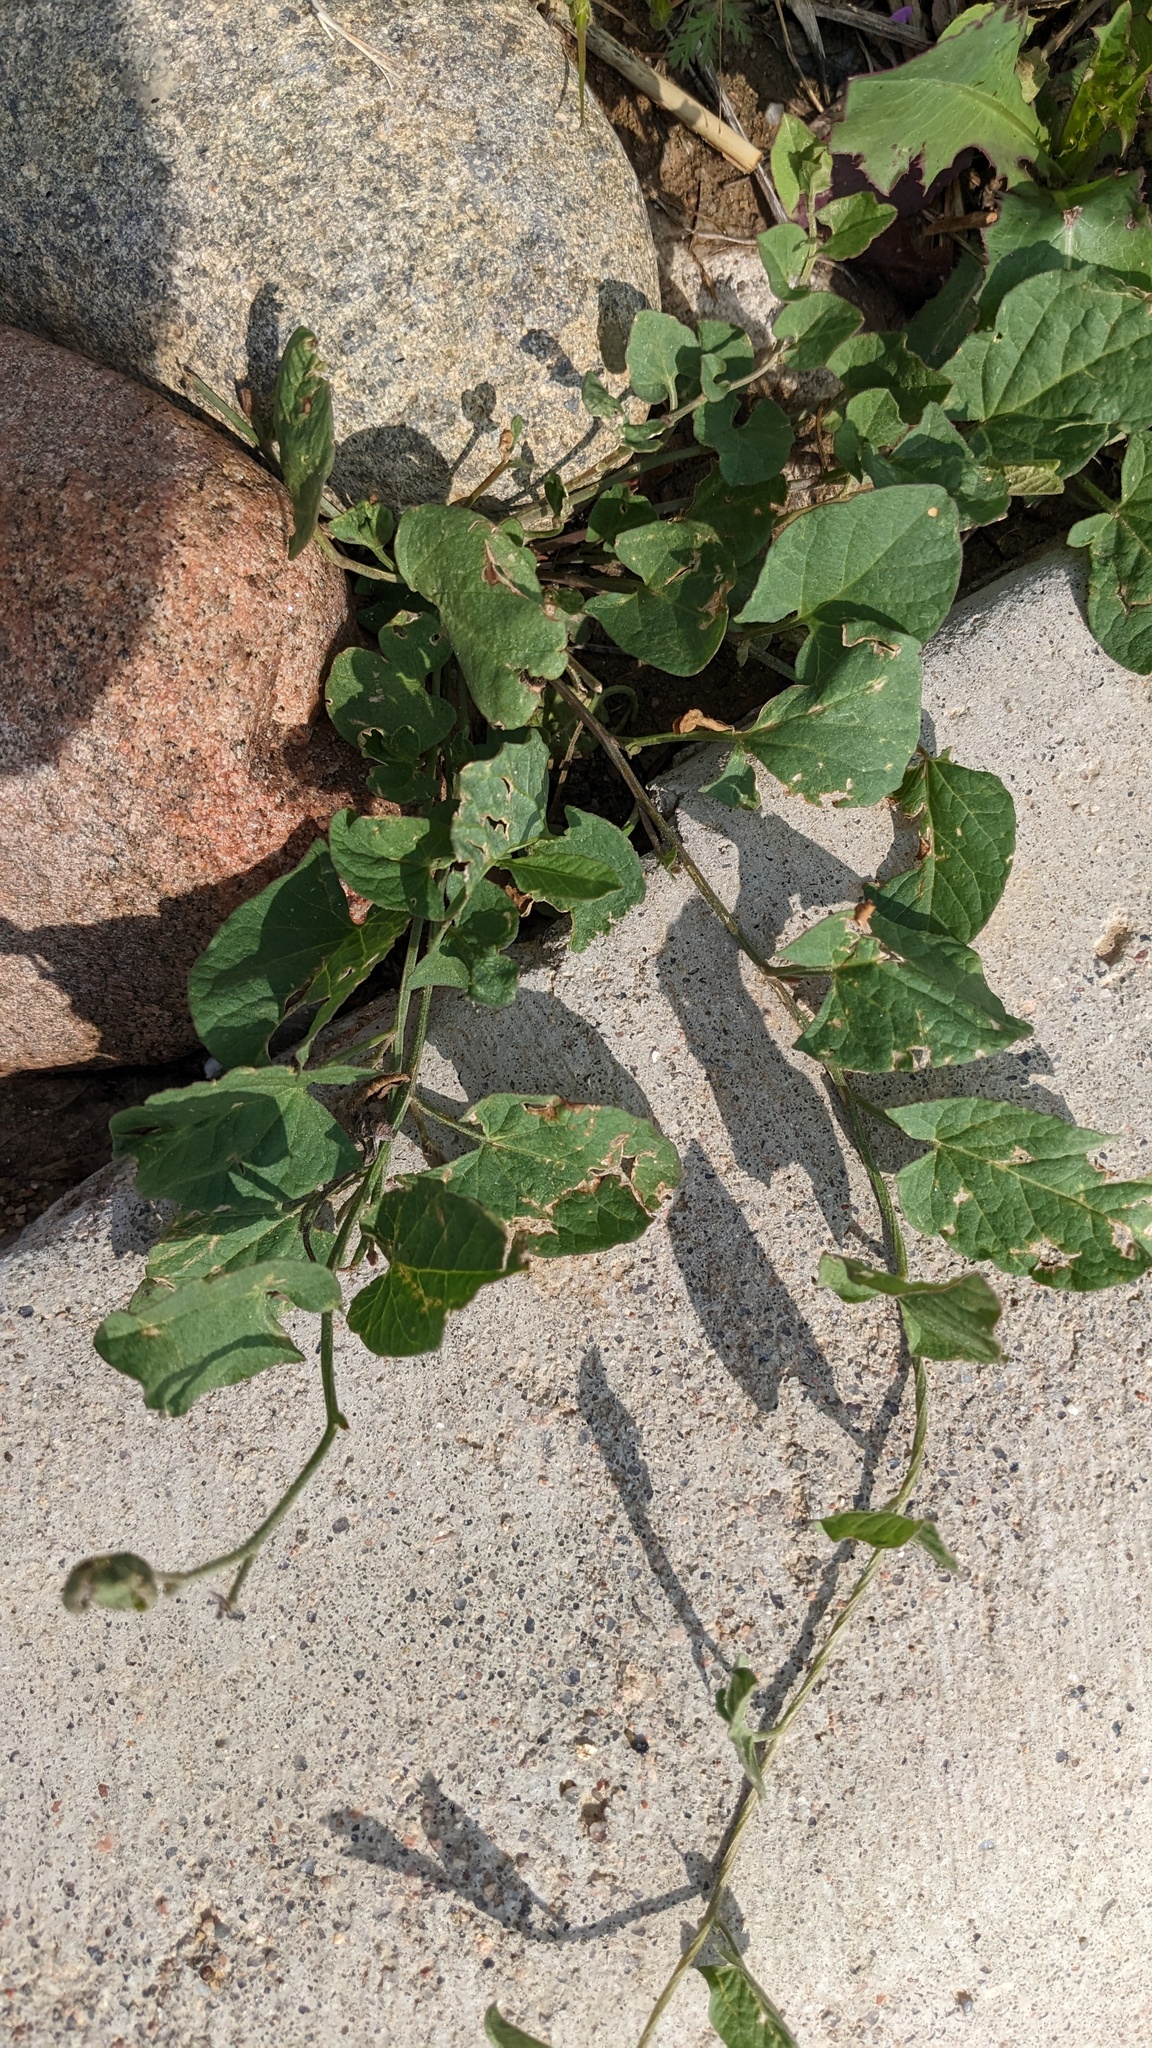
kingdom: Plantae
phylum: Tracheophyta
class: Magnoliopsida
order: Solanales
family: Convolvulaceae
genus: Convolvulus
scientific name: Convolvulus arvensis
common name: Field bindweed
